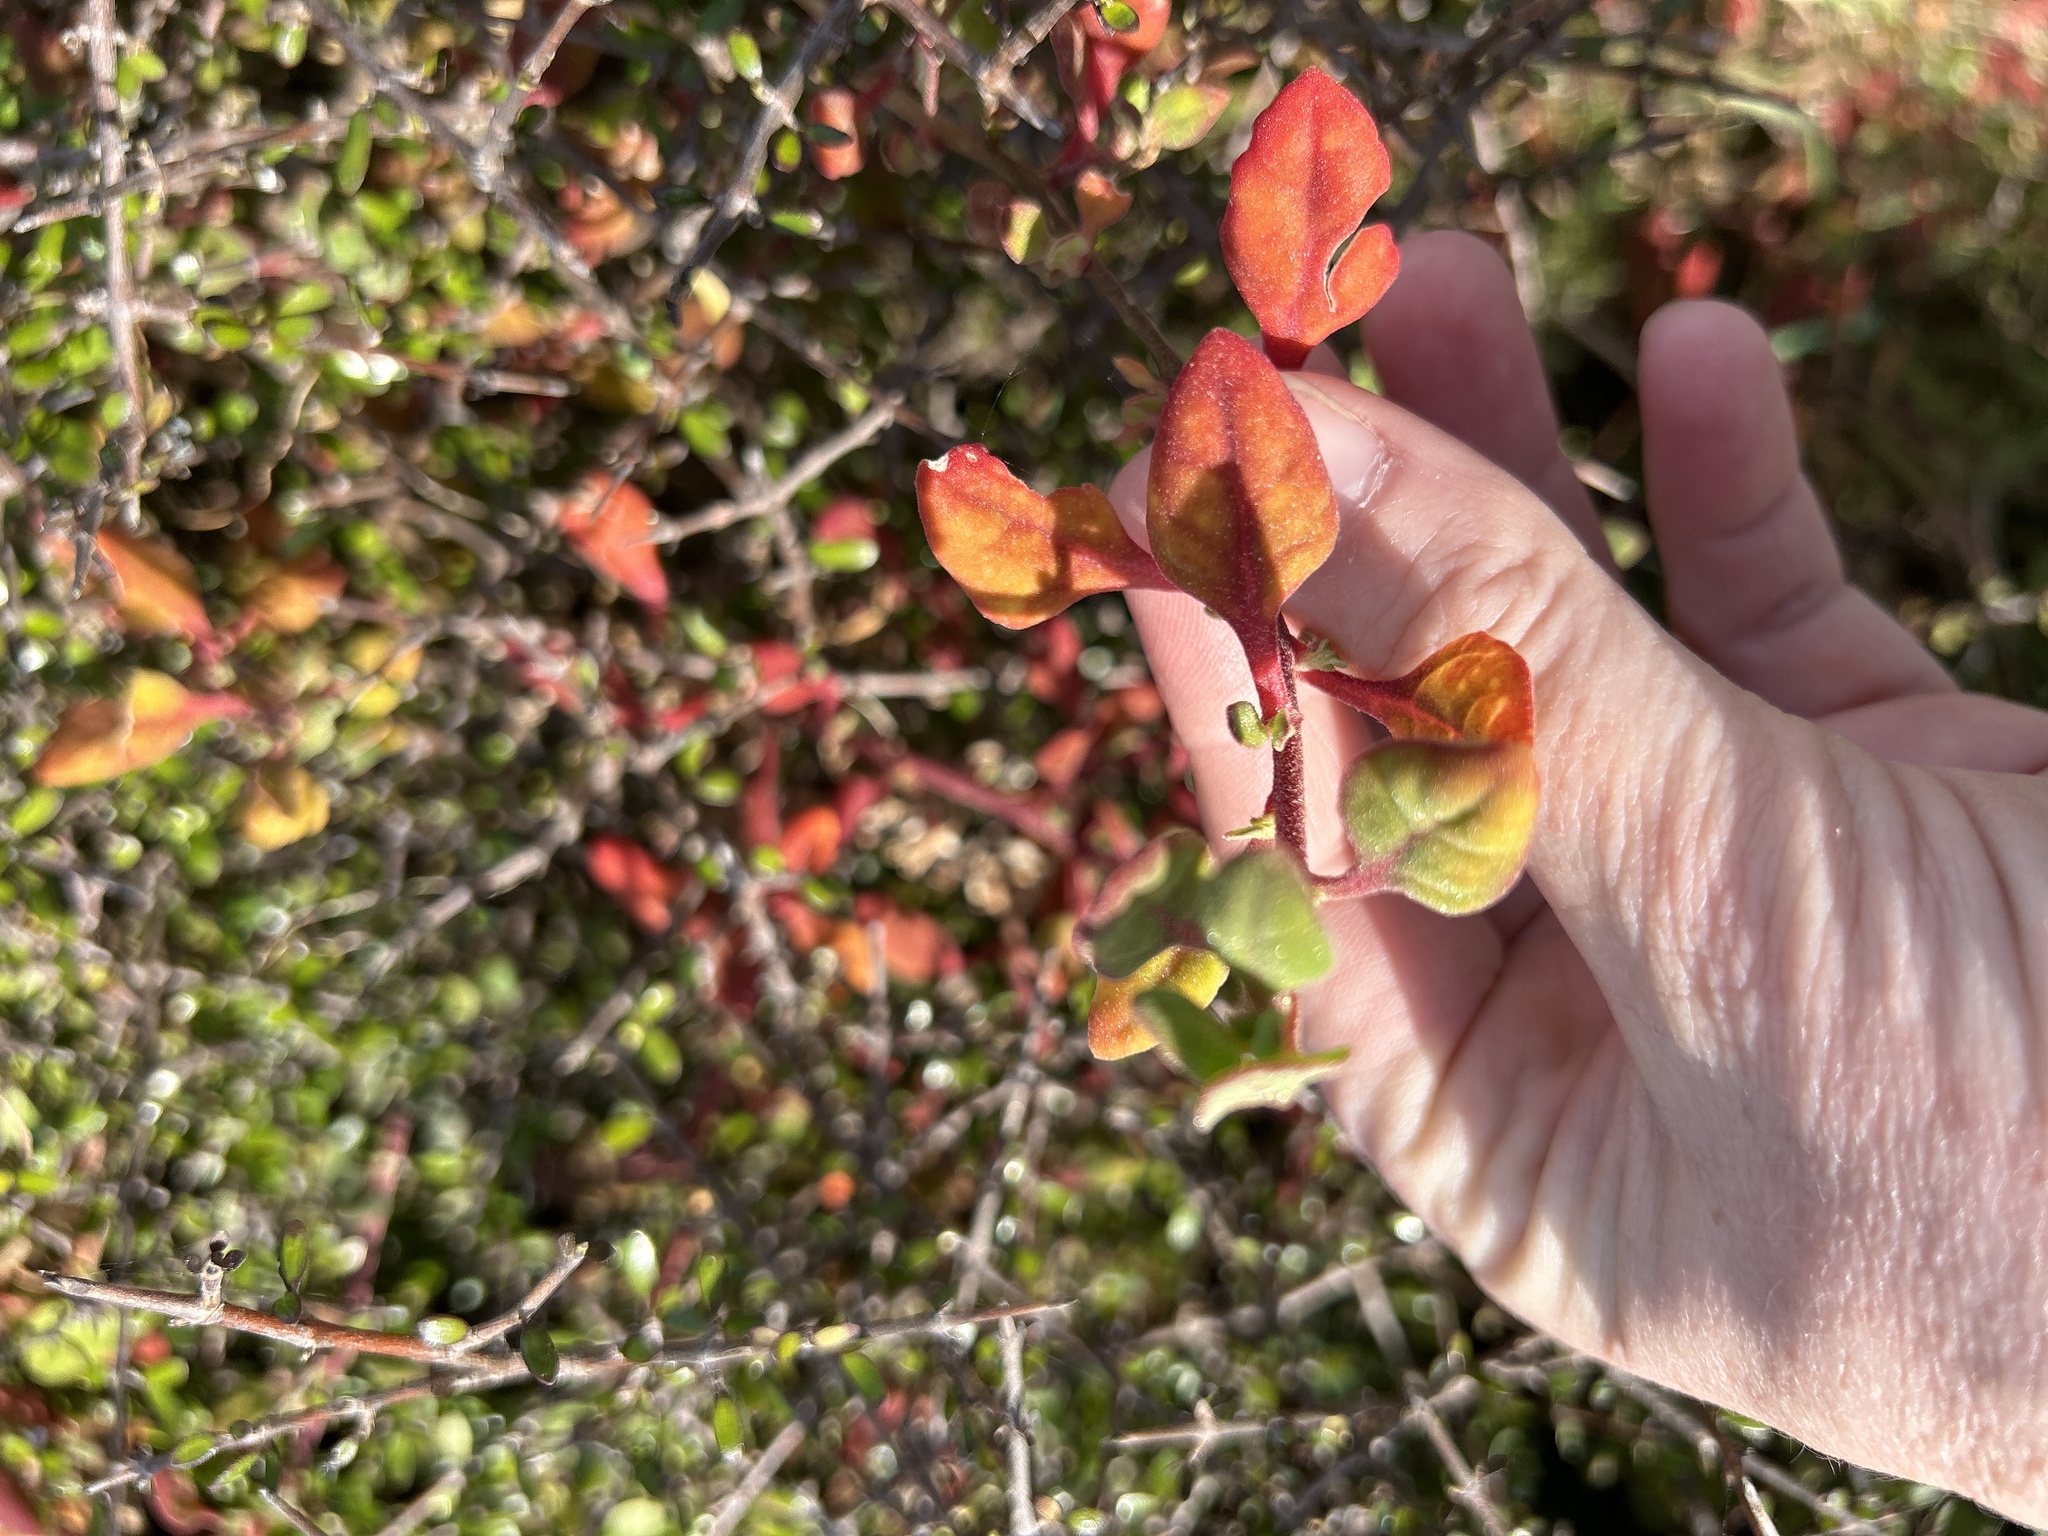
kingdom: Plantae
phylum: Tracheophyta
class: Magnoliopsida
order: Caryophyllales
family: Aizoaceae
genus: Tetragonia
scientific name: Tetragonia implexicoma
